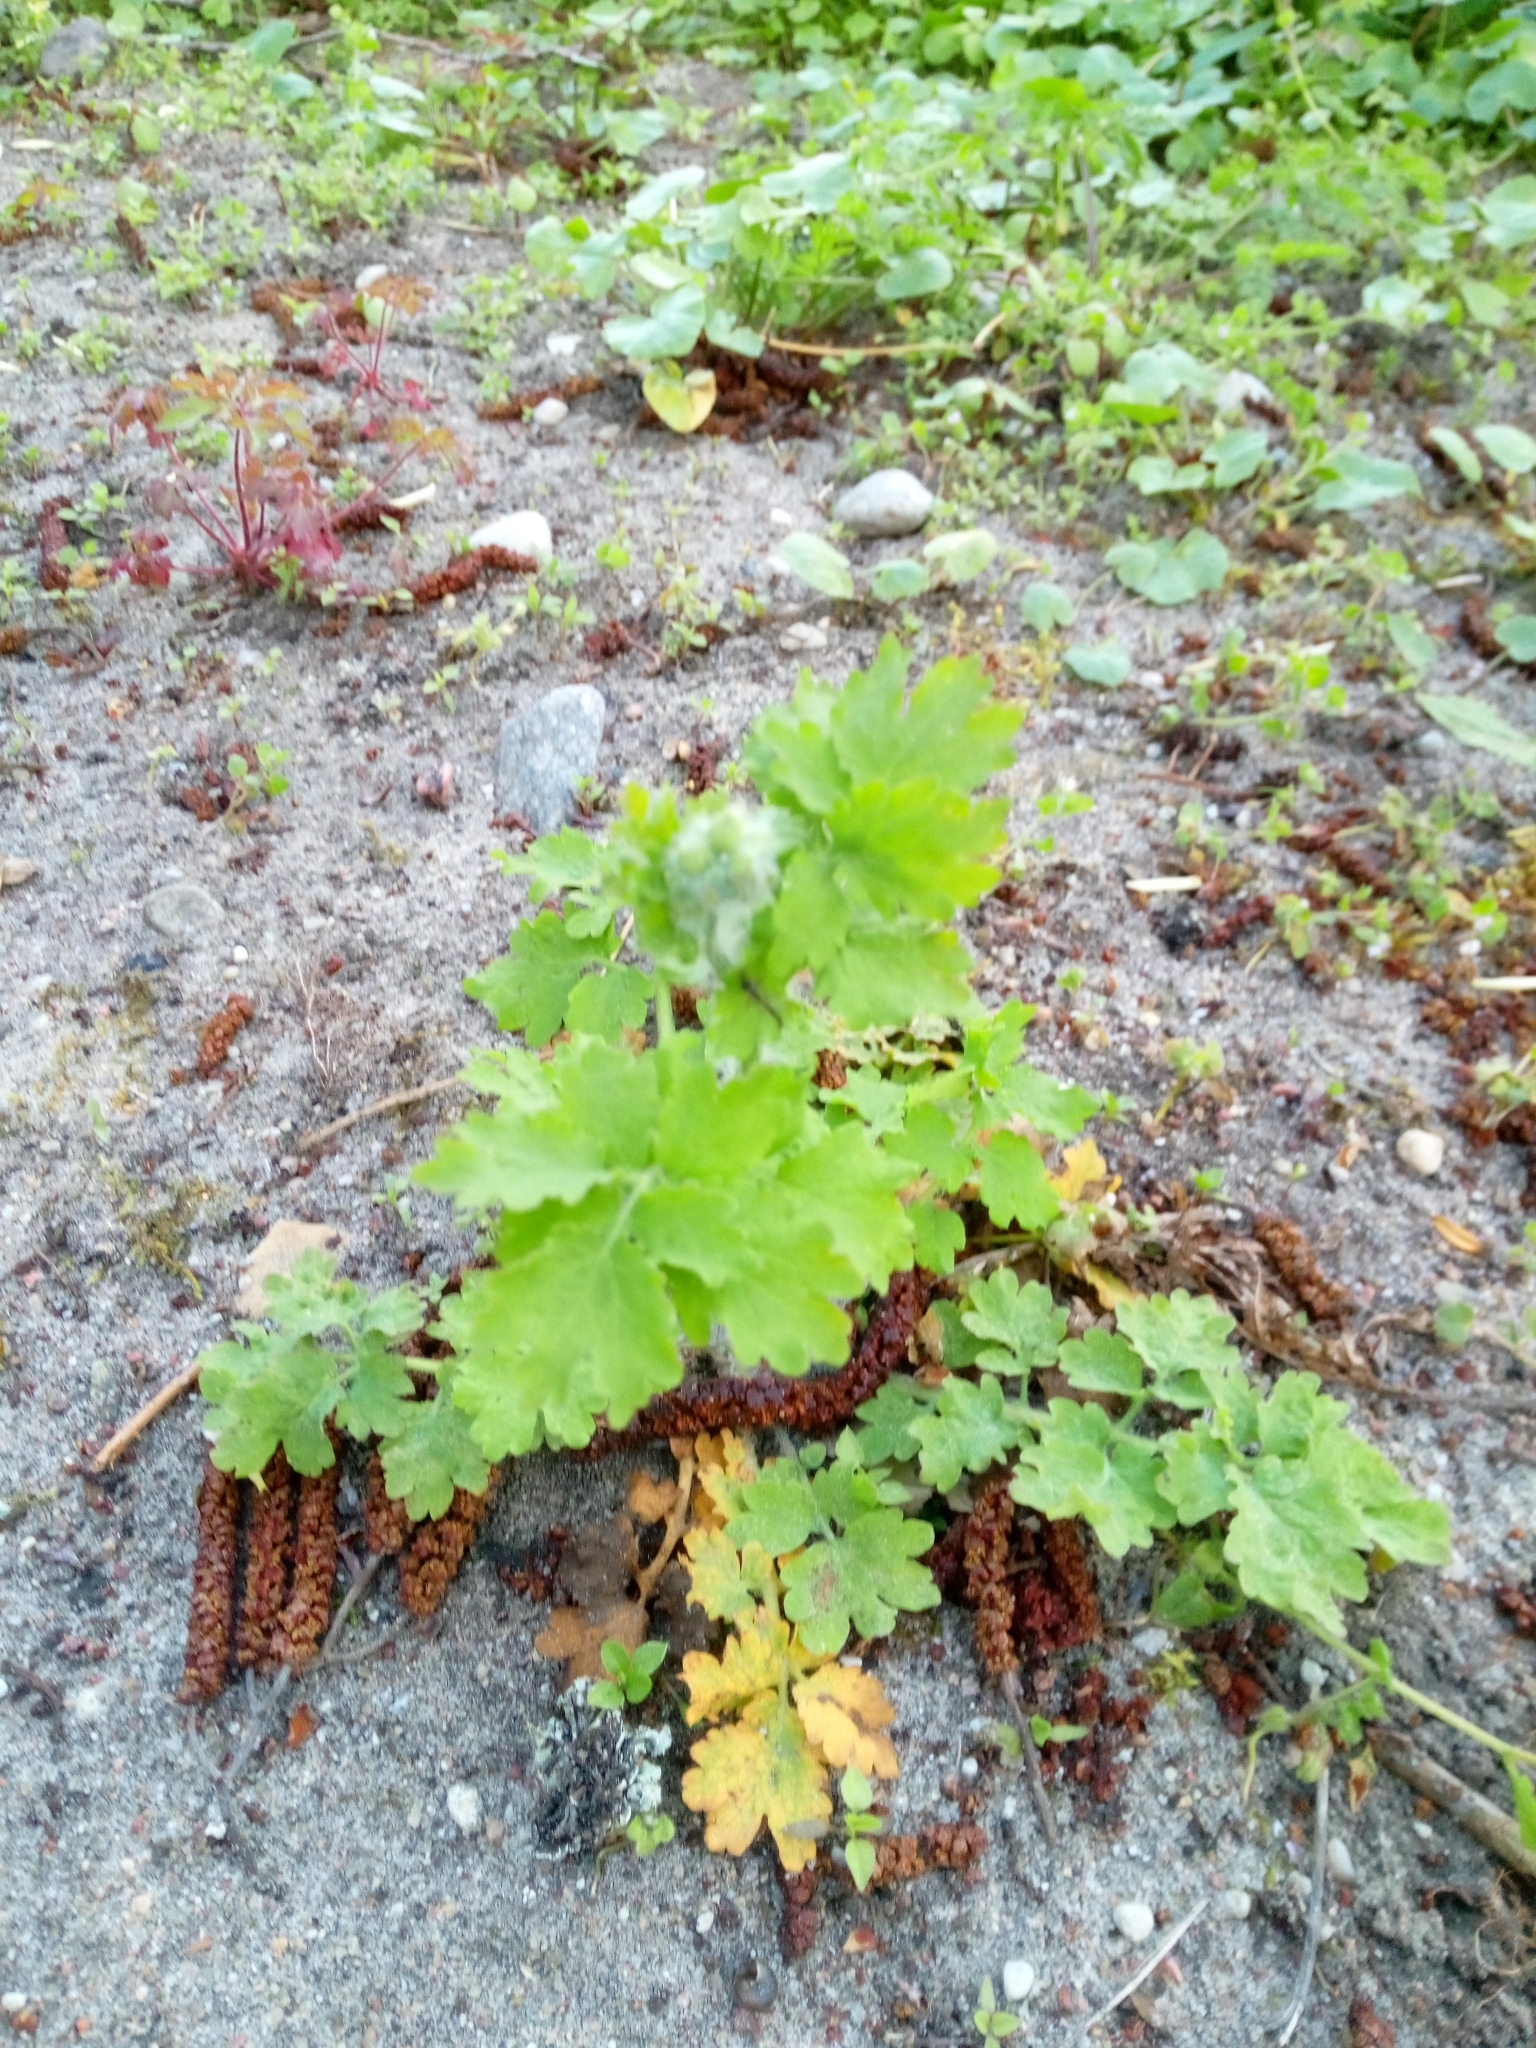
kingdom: Plantae
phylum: Tracheophyta
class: Magnoliopsida
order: Ranunculales
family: Papaveraceae
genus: Chelidonium
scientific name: Chelidonium majus
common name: Greater celandine
